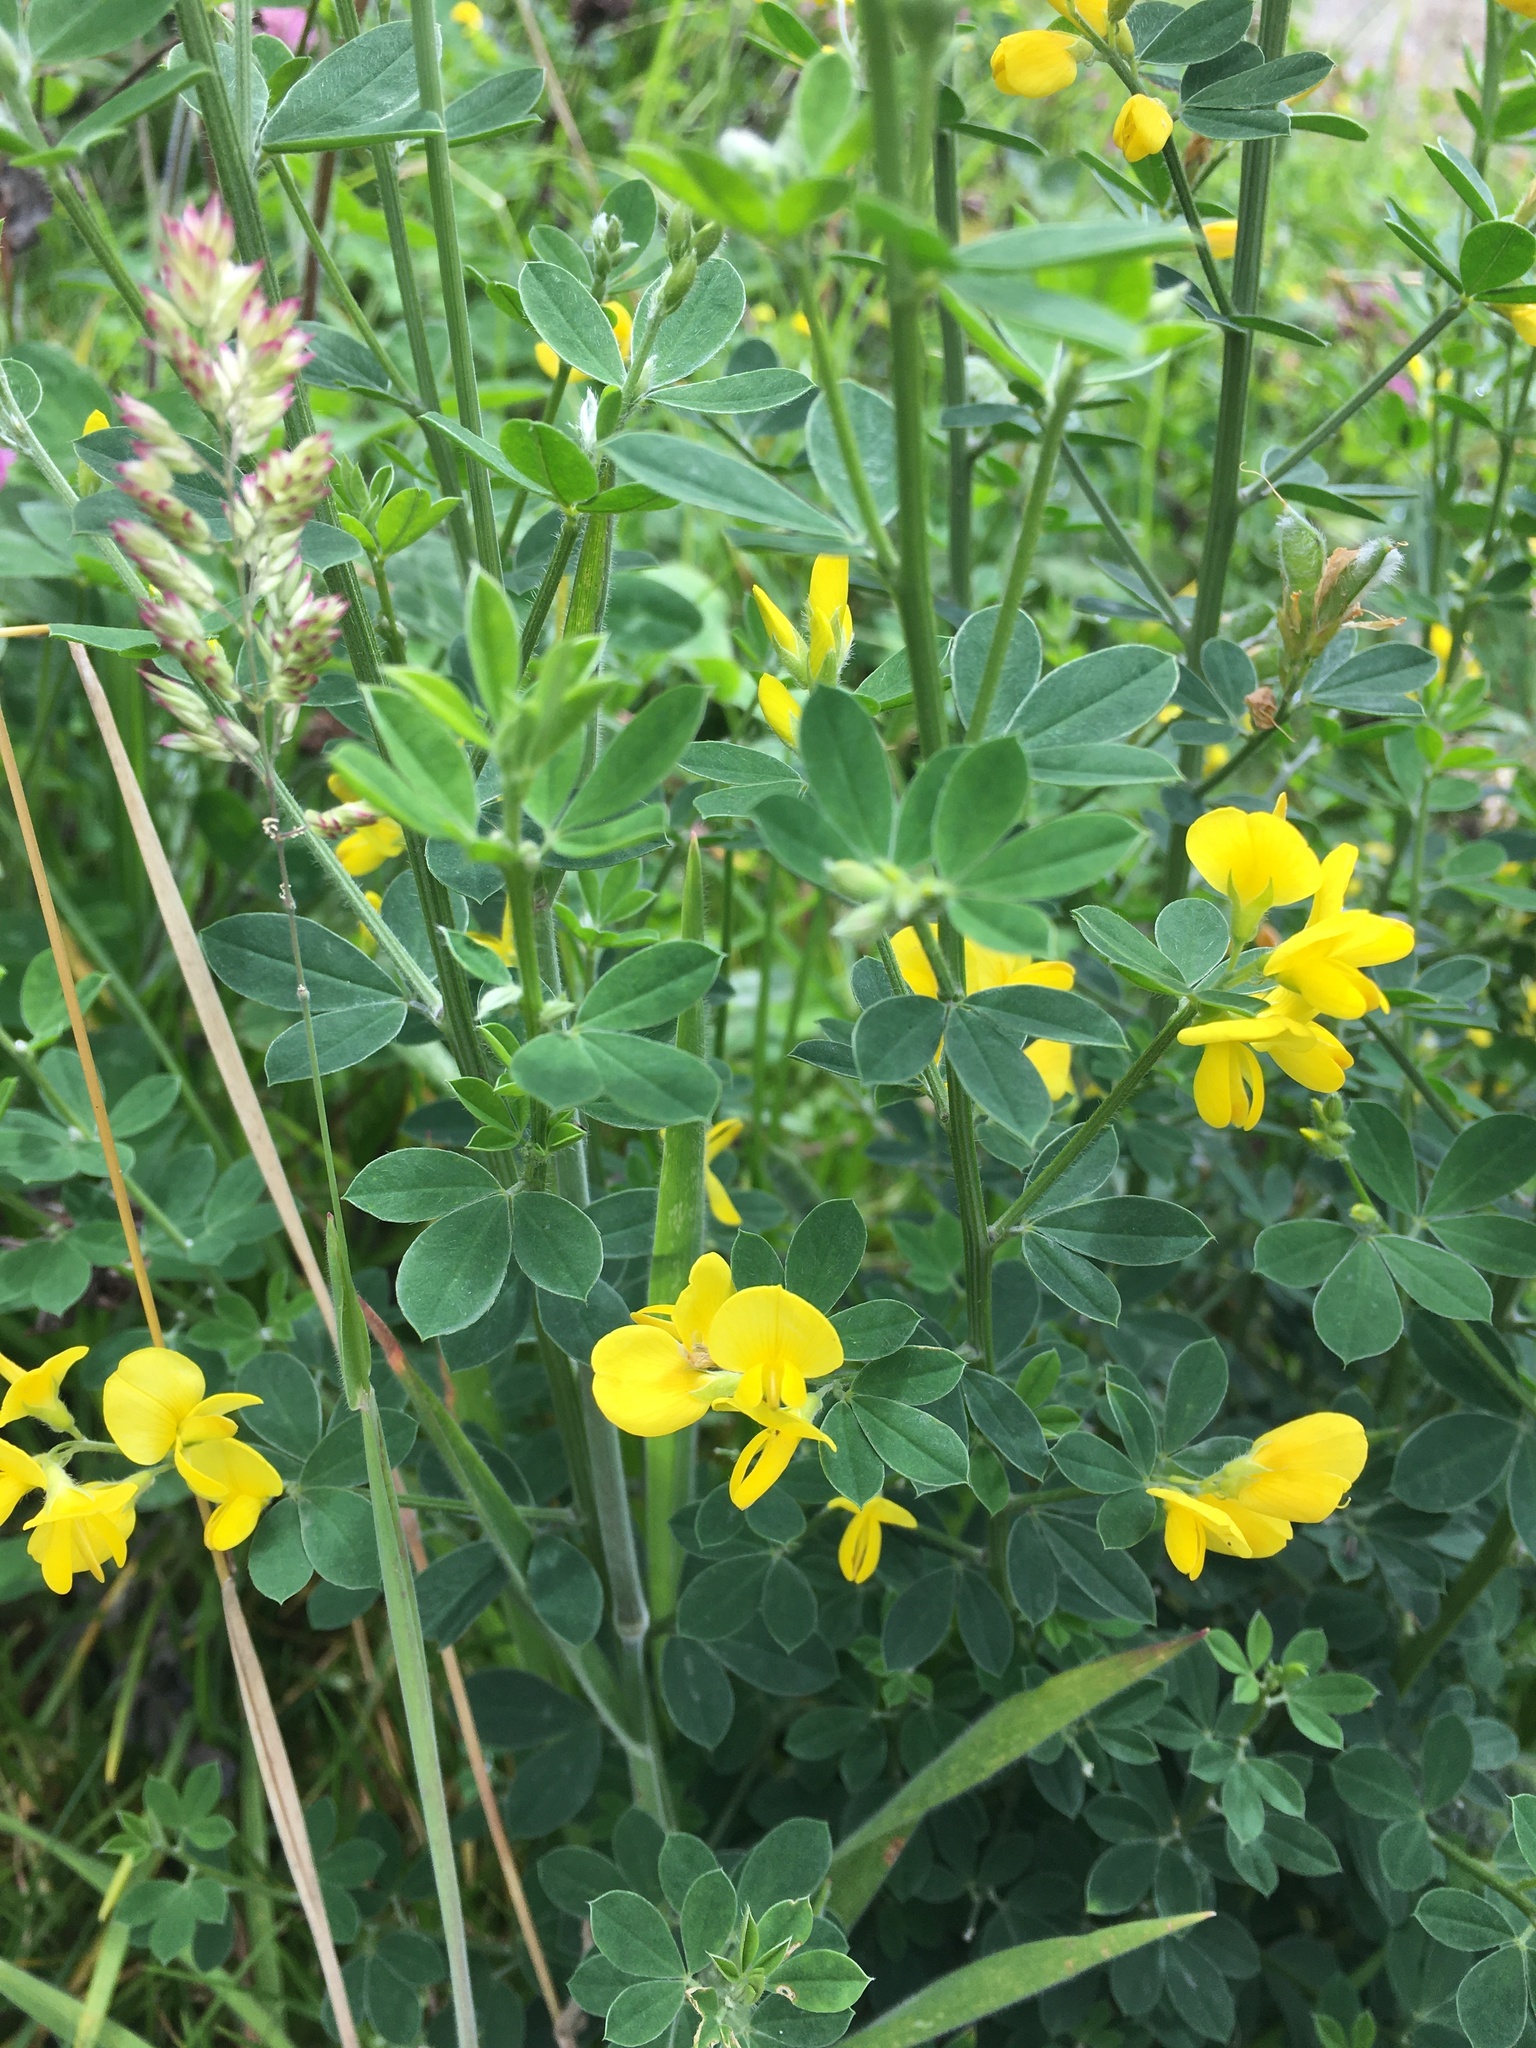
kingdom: Plantae
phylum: Tracheophyta
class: Magnoliopsida
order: Fabales
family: Fabaceae
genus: Genista
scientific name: Genista monspessulana
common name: Montpellier broom
